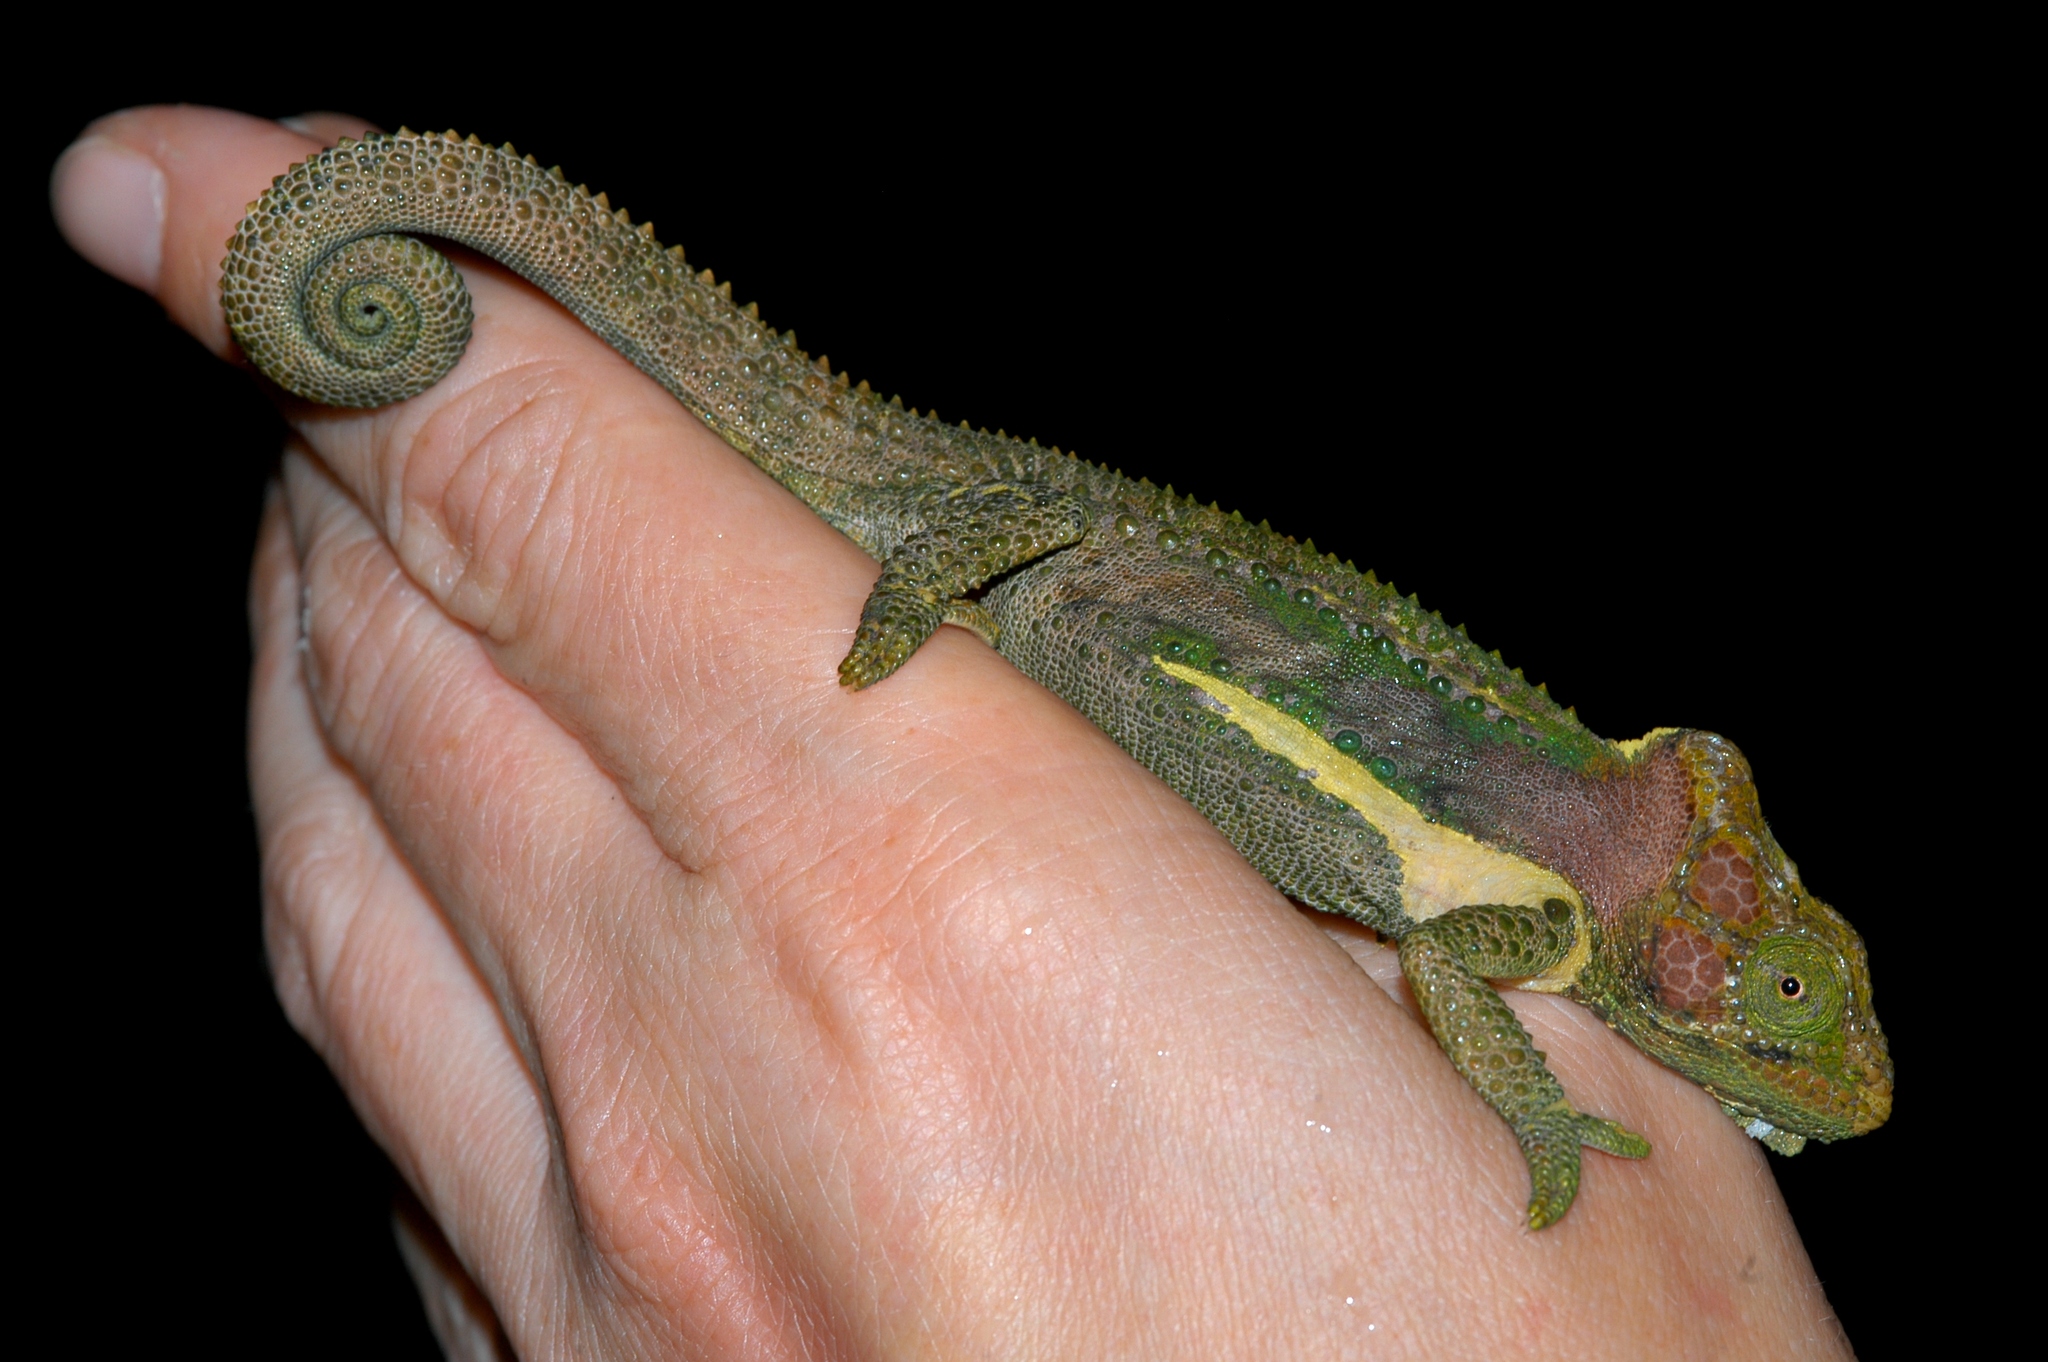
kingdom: Animalia
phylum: Chordata
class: Squamata
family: Chamaeleonidae
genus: Bradypodion
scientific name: Bradypodion damaranum
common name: Knysna dwarf chameleon
